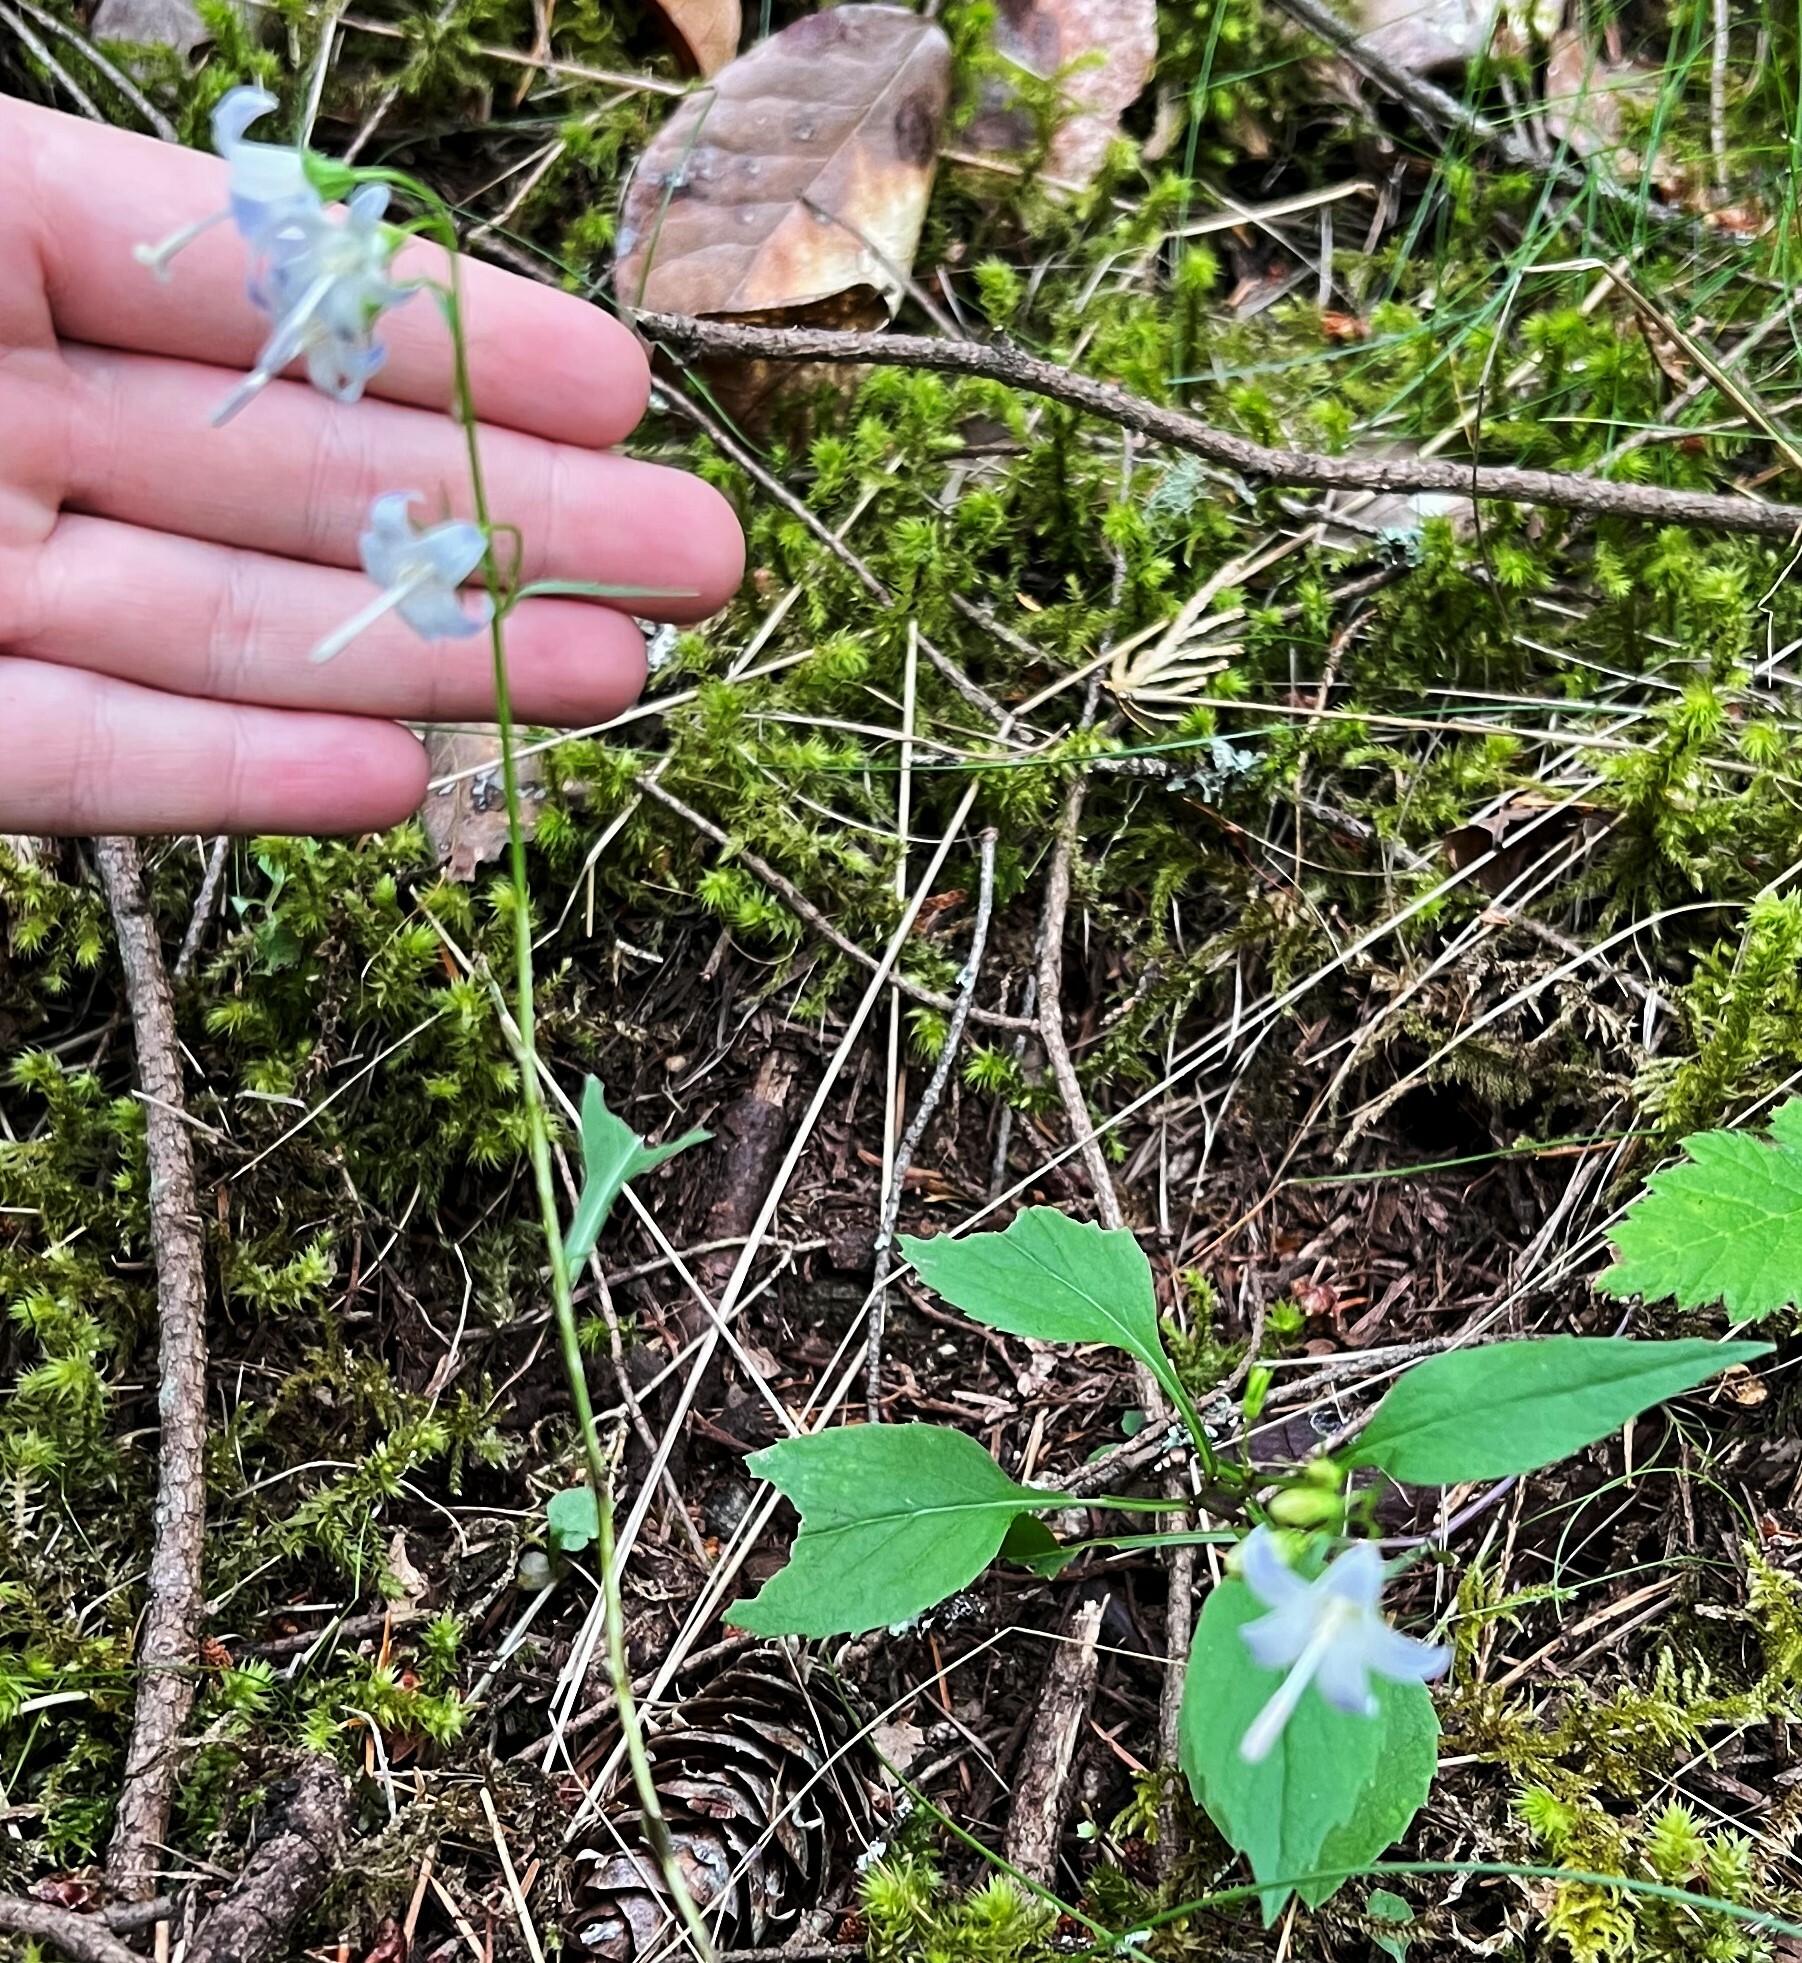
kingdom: Plantae
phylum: Tracheophyta
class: Magnoliopsida
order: Asterales
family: Campanulaceae
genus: Campanula
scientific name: Campanula scouleri
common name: Scouler's harebell
